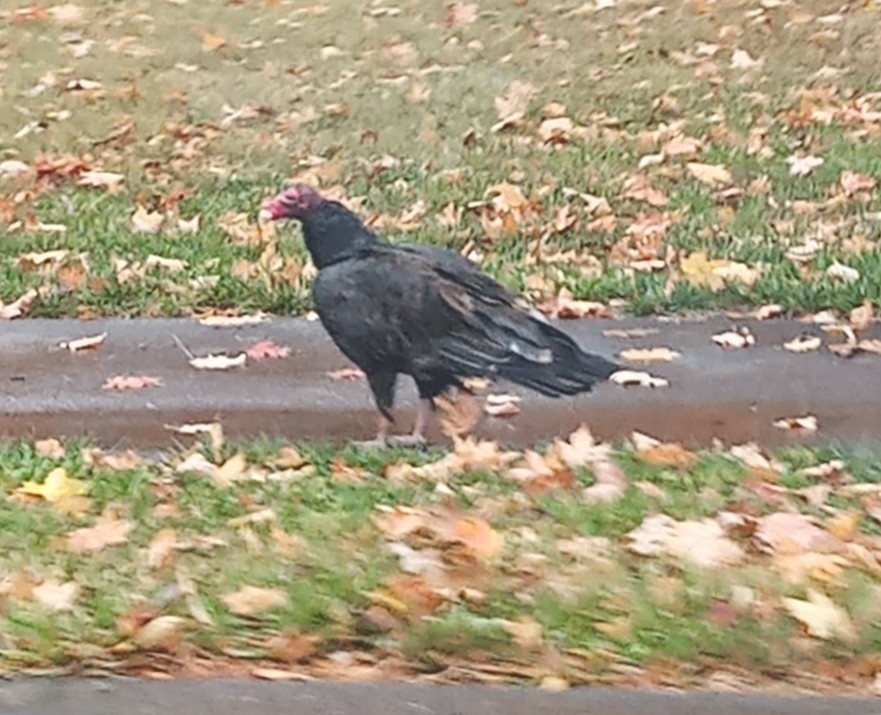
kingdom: Animalia
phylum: Chordata
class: Aves
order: Accipitriformes
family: Cathartidae
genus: Cathartes
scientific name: Cathartes aura
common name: Turkey vulture
